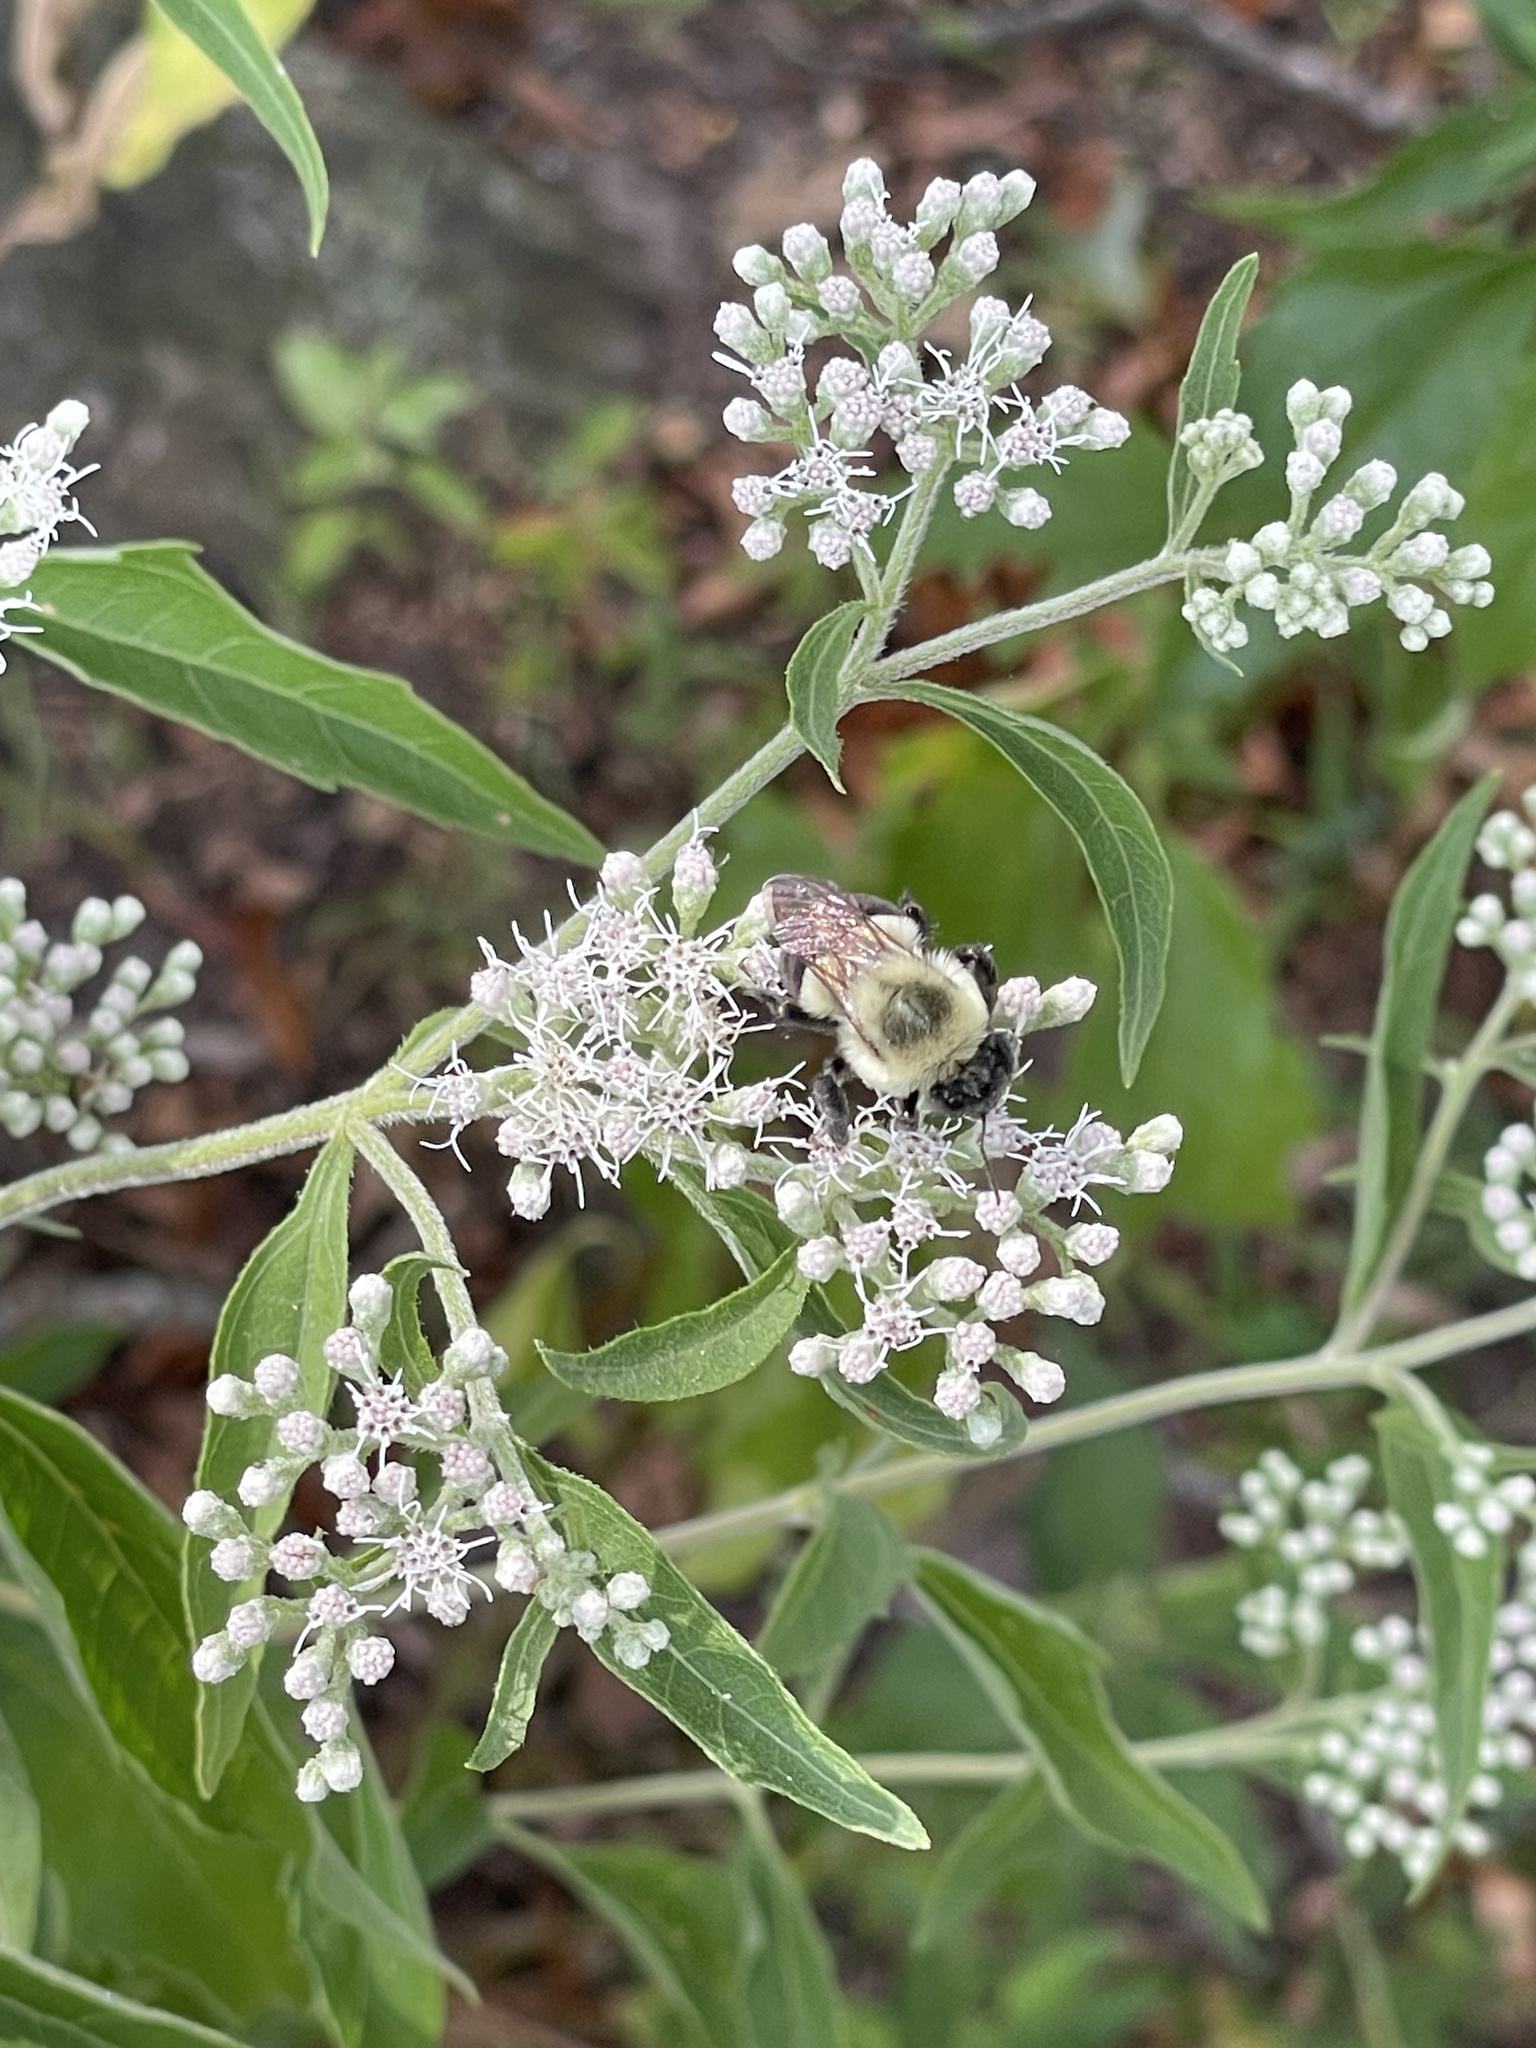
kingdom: Animalia
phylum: Arthropoda
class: Insecta
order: Hymenoptera
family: Apidae
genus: Bombus
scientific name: Bombus impatiens
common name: Common eastern bumble bee
